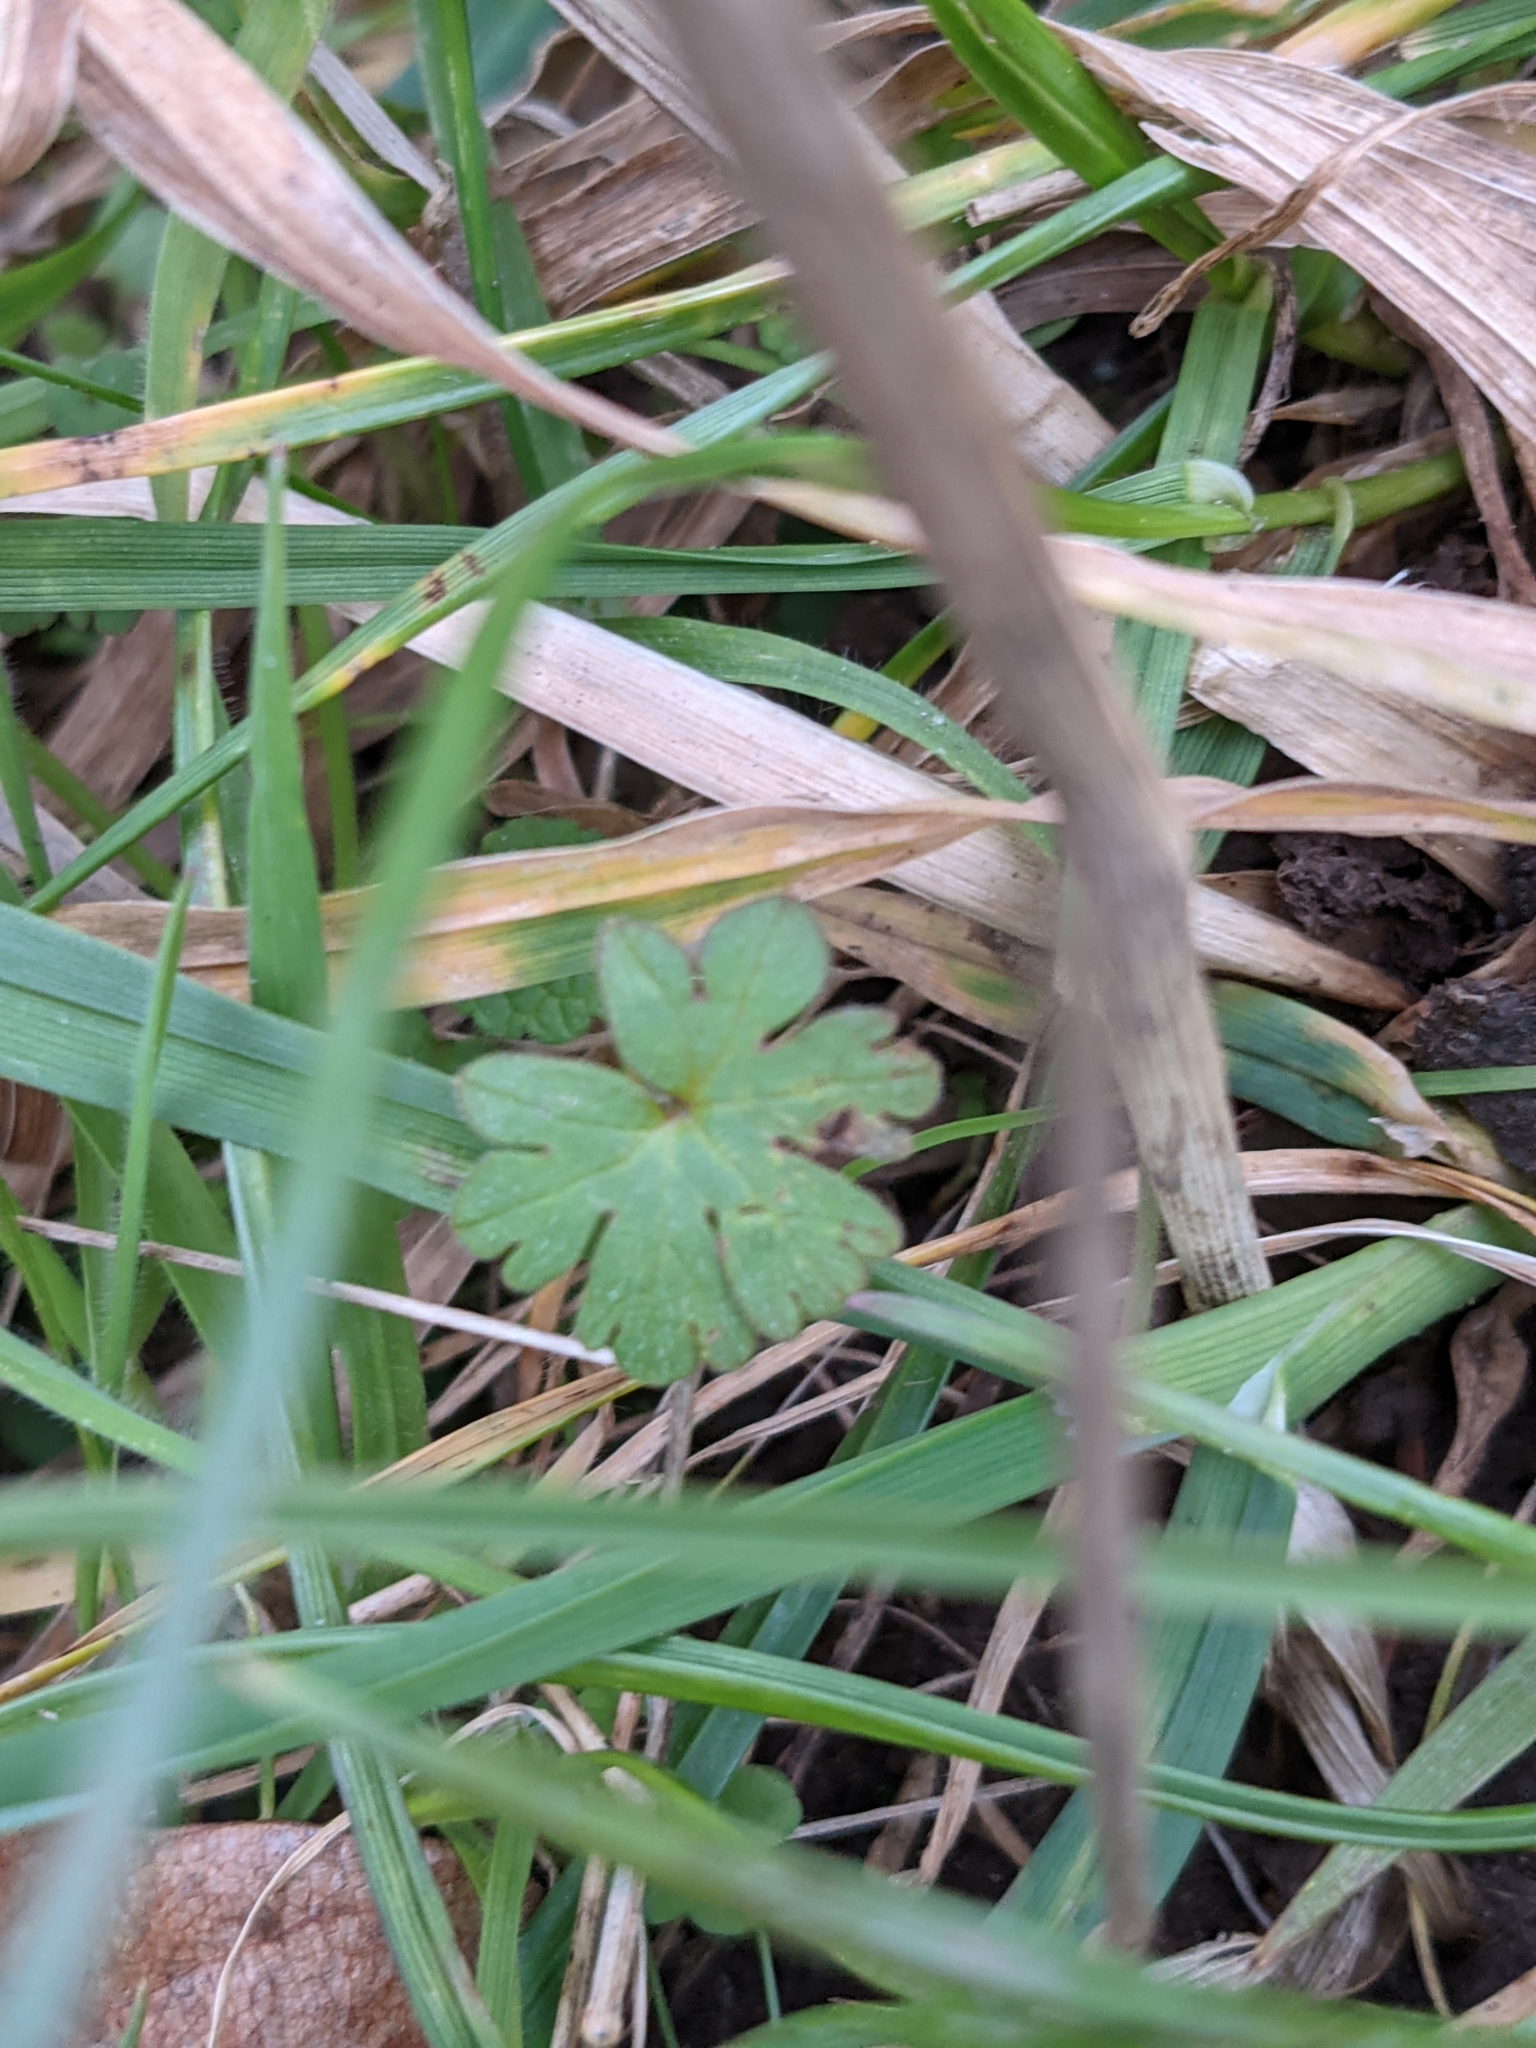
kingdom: Plantae
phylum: Tracheophyta
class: Magnoliopsida
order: Geraniales
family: Geraniaceae
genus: Geranium
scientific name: Geranium molle
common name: Dove's-foot crane's-bill
